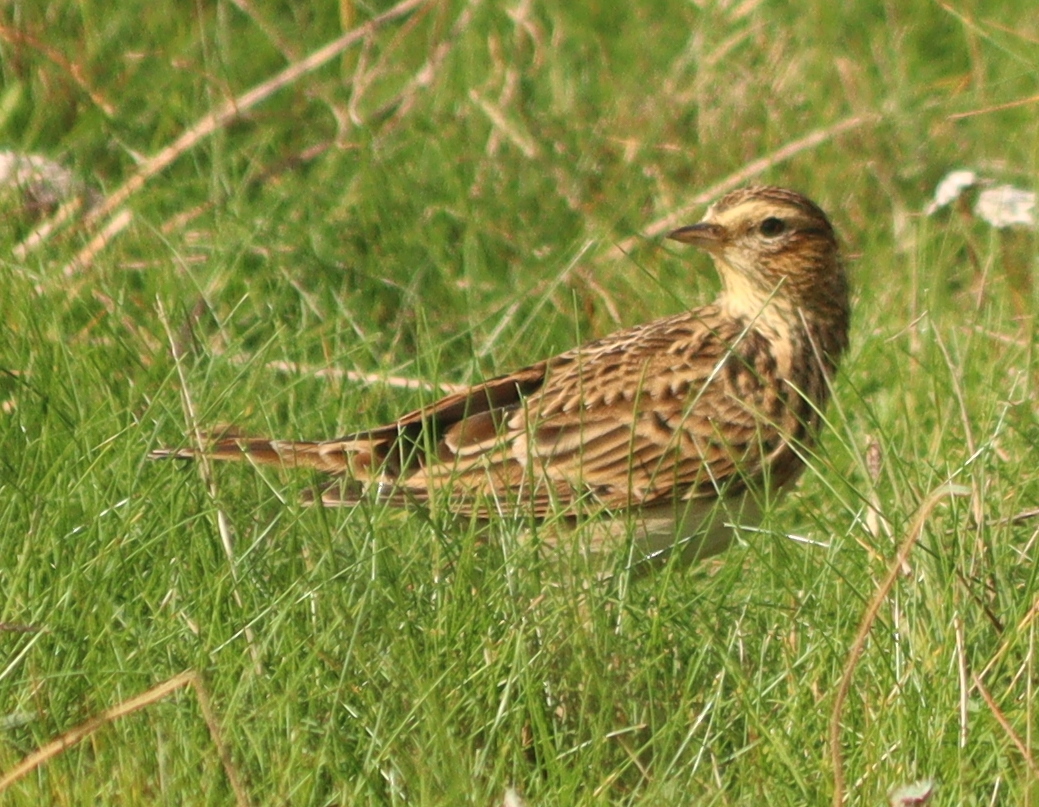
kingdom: Animalia
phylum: Chordata
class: Aves
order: Passeriformes
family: Alaudidae
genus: Alauda
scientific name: Alauda arvensis
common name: Eurasian skylark
